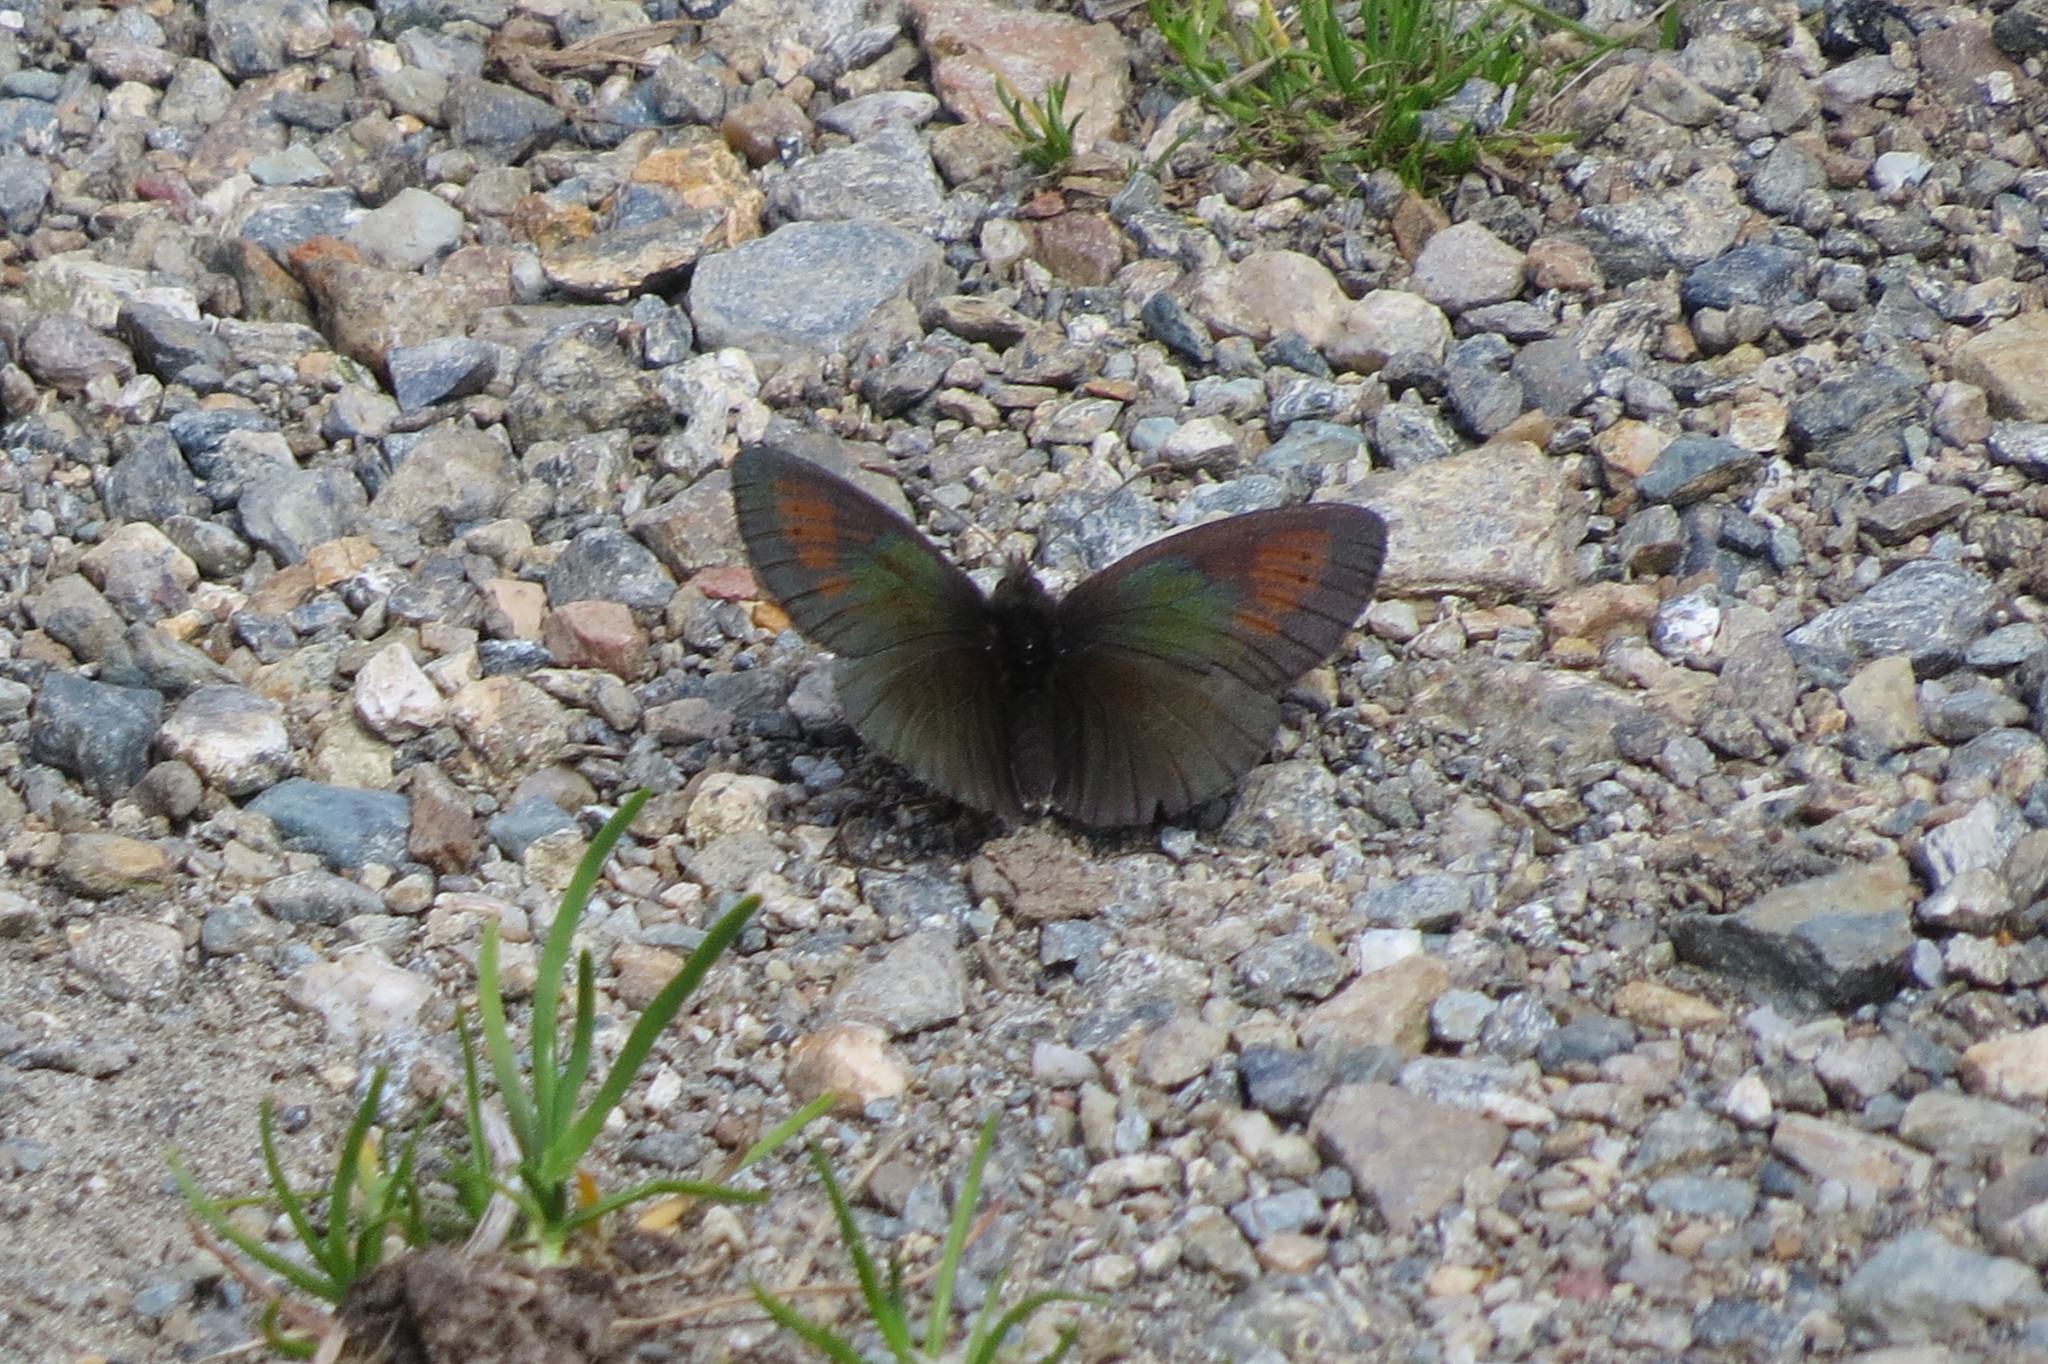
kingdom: Animalia
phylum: Arthropoda
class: Insecta
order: Lepidoptera
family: Nymphalidae
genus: Erebia
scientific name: Erebia tyndarus
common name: Swiss brassy ringlet
